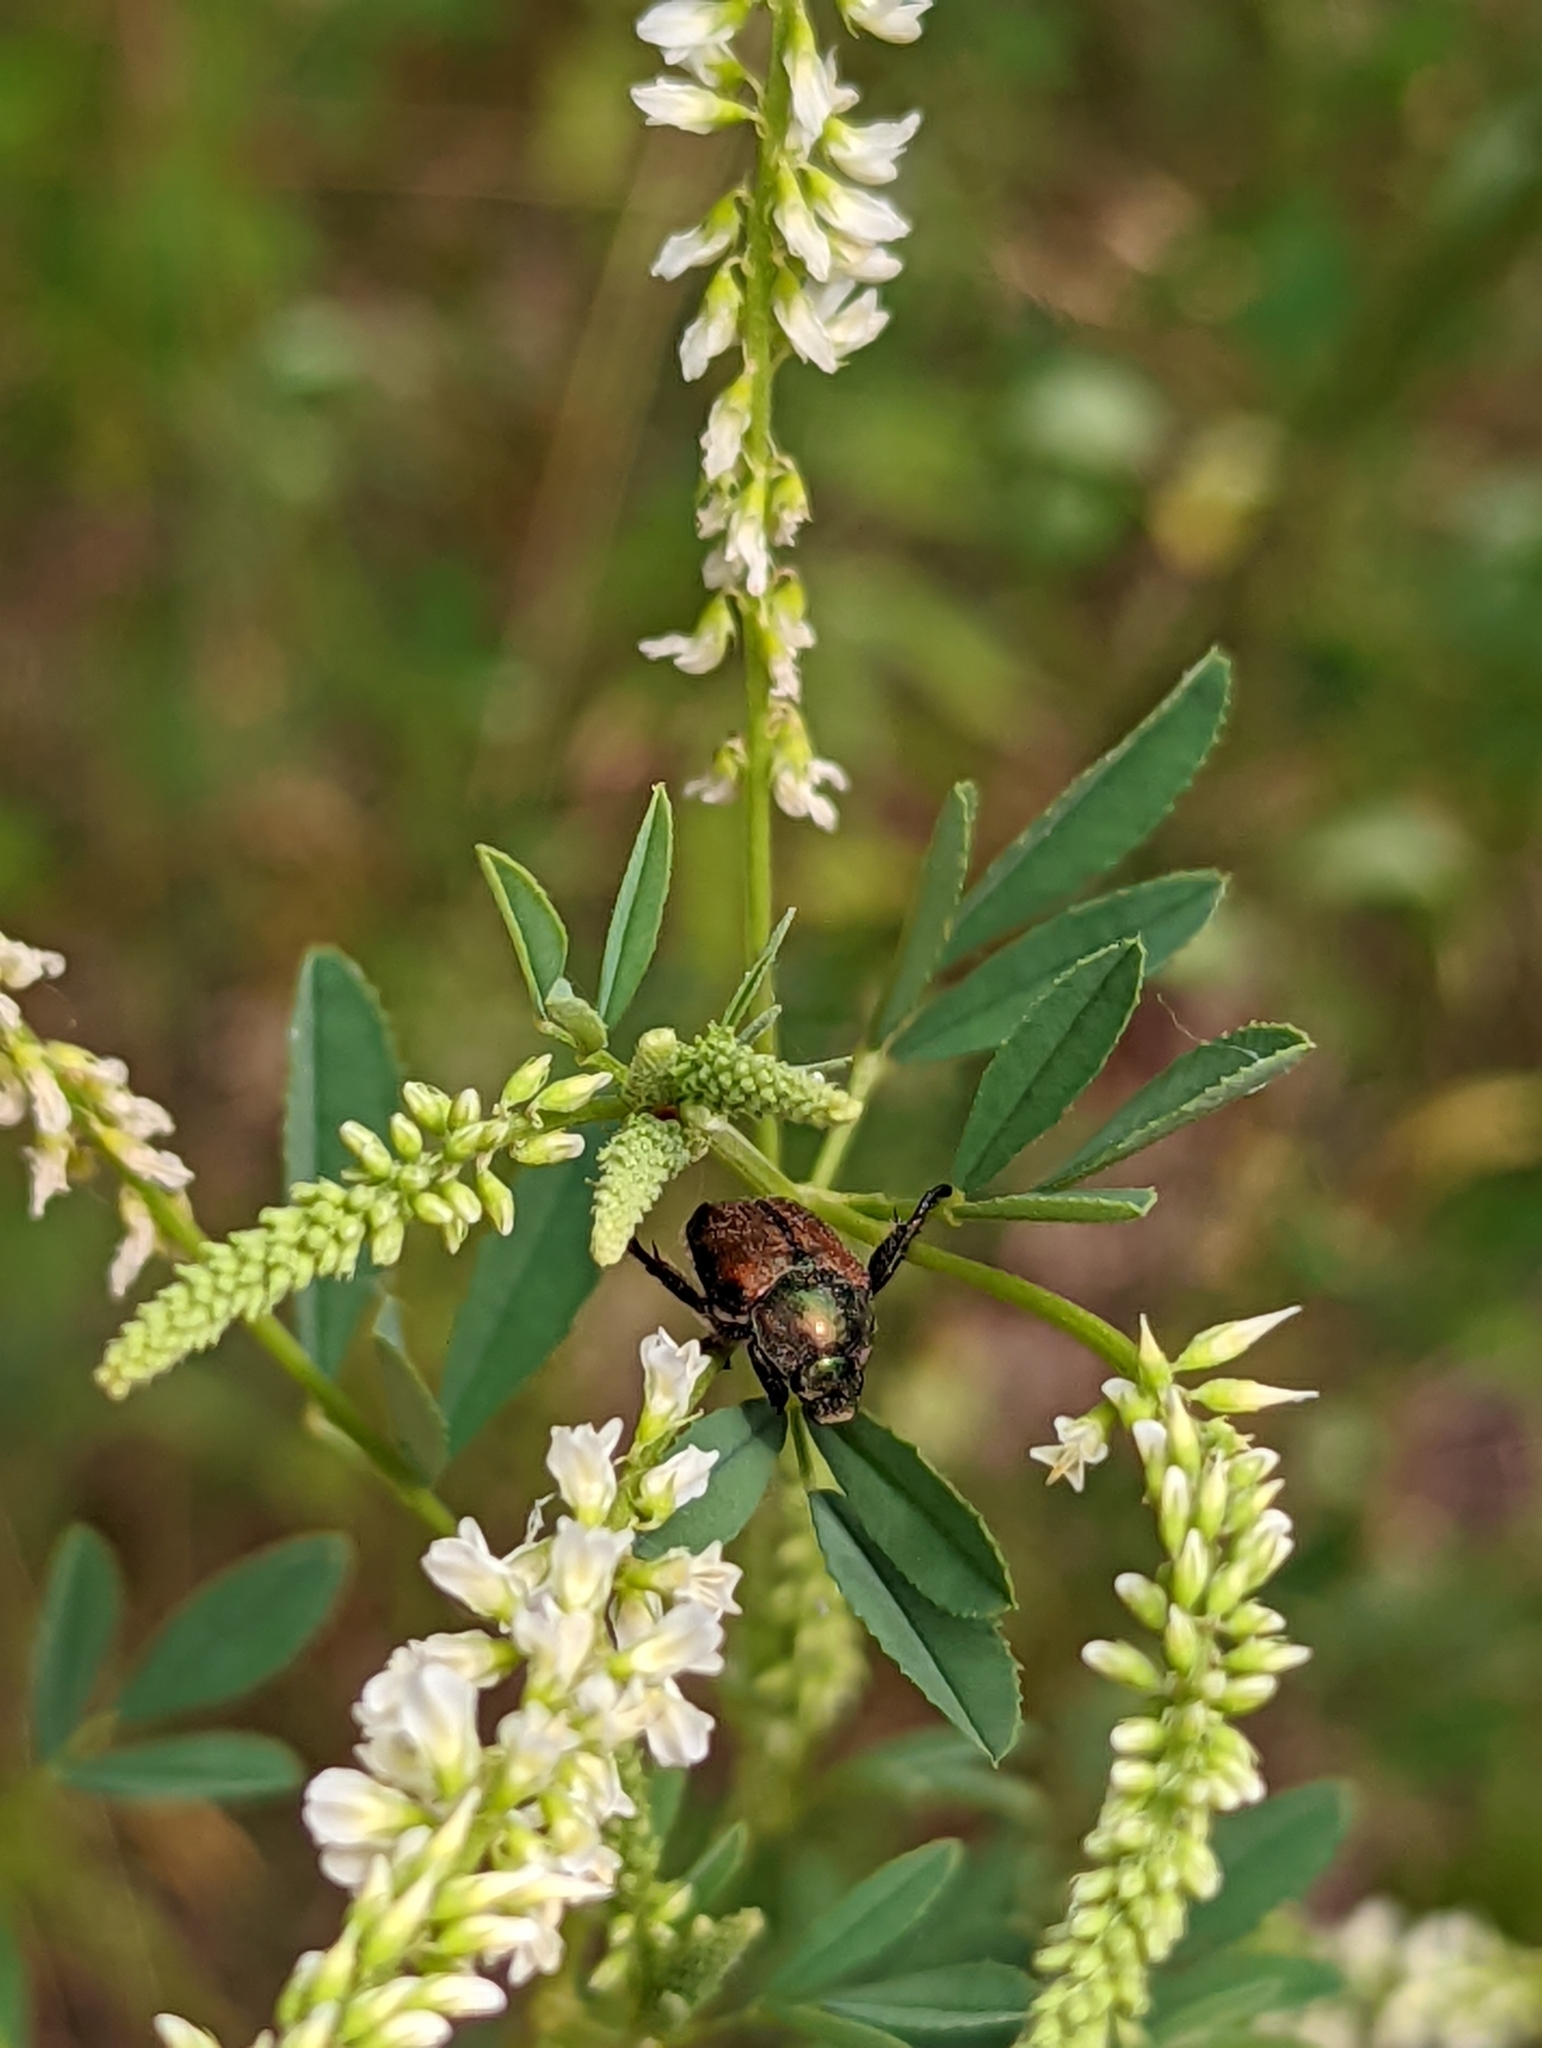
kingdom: Animalia
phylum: Arthropoda
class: Insecta
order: Coleoptera
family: Scarabaeidae
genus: Popillia
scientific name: Popillia japonica
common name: Japanese beetle
